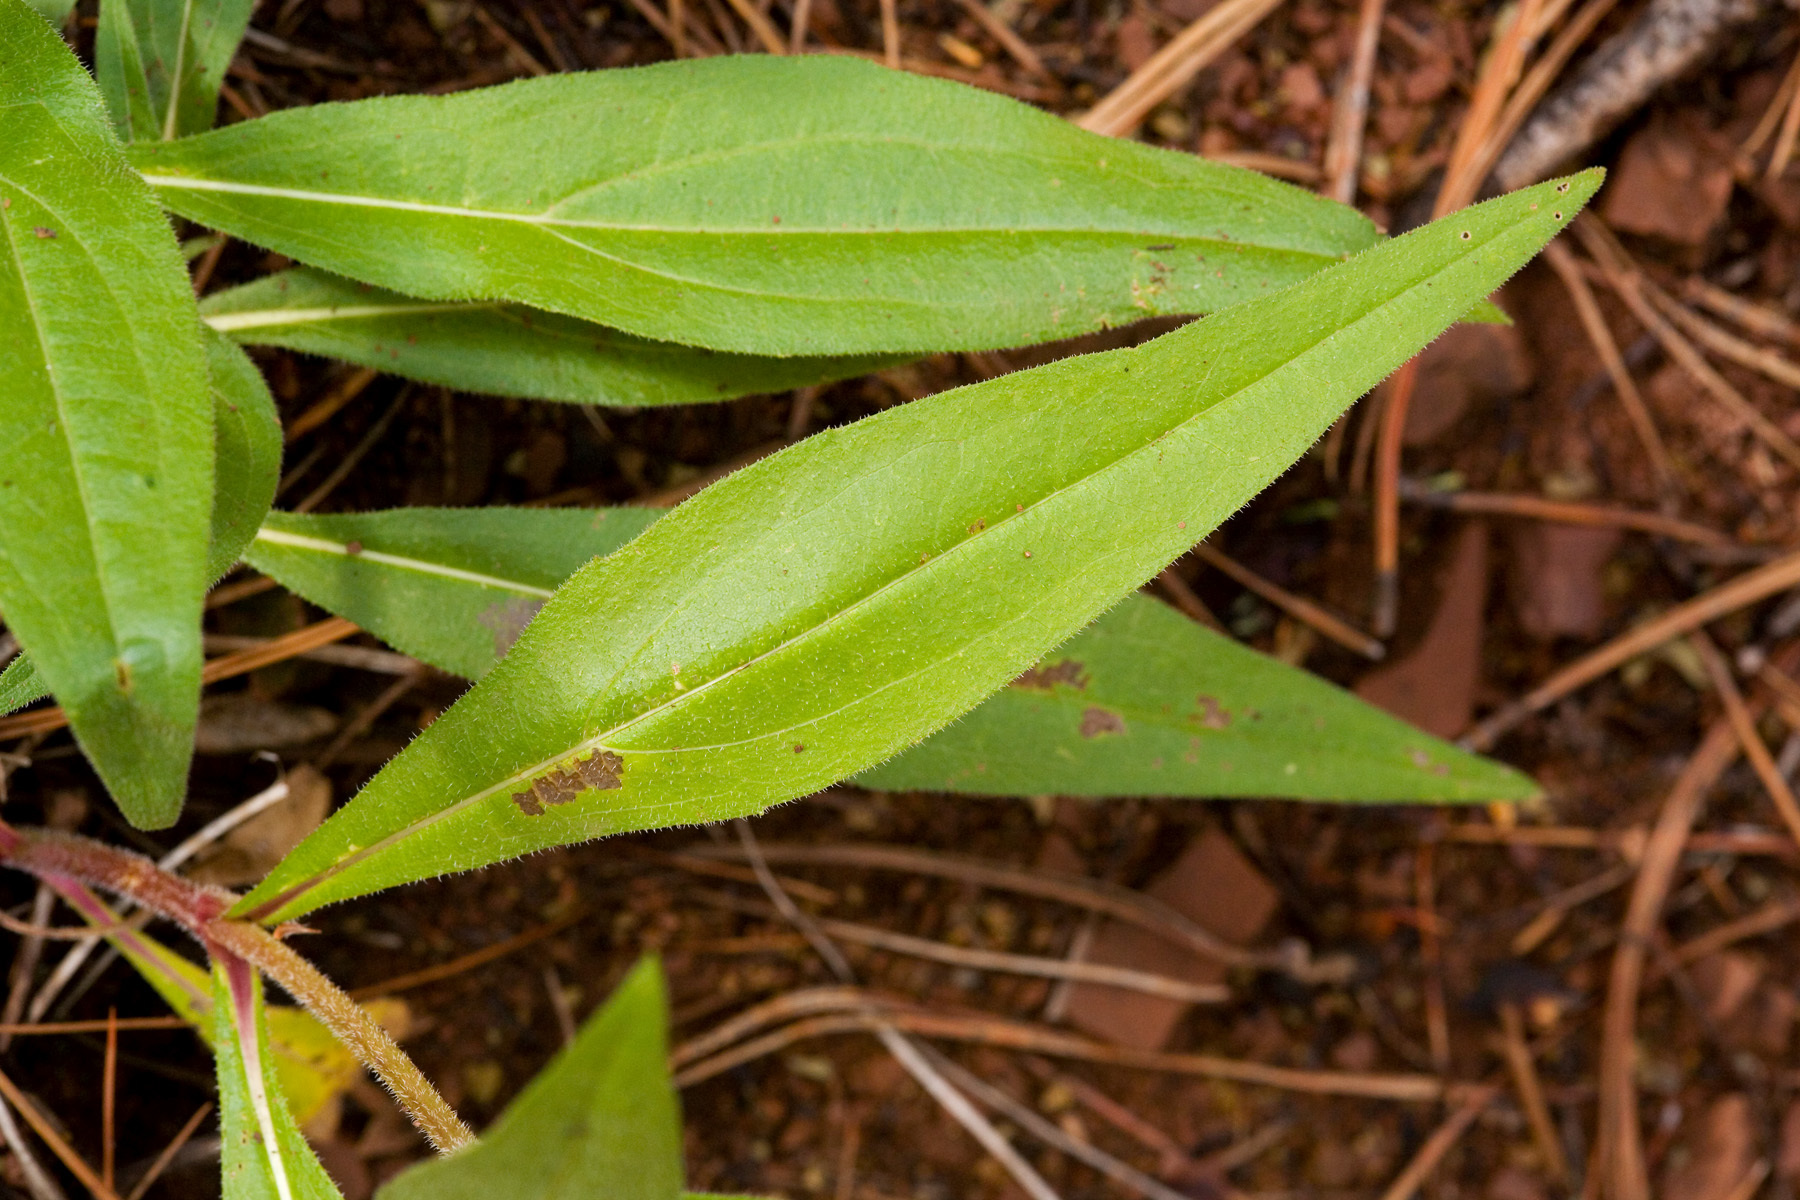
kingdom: Plantae
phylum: Tracheophyta
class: Magnoliopsida
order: Asterales
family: Asteraceae
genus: Helianthella
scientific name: Helianthella quinquenervis
